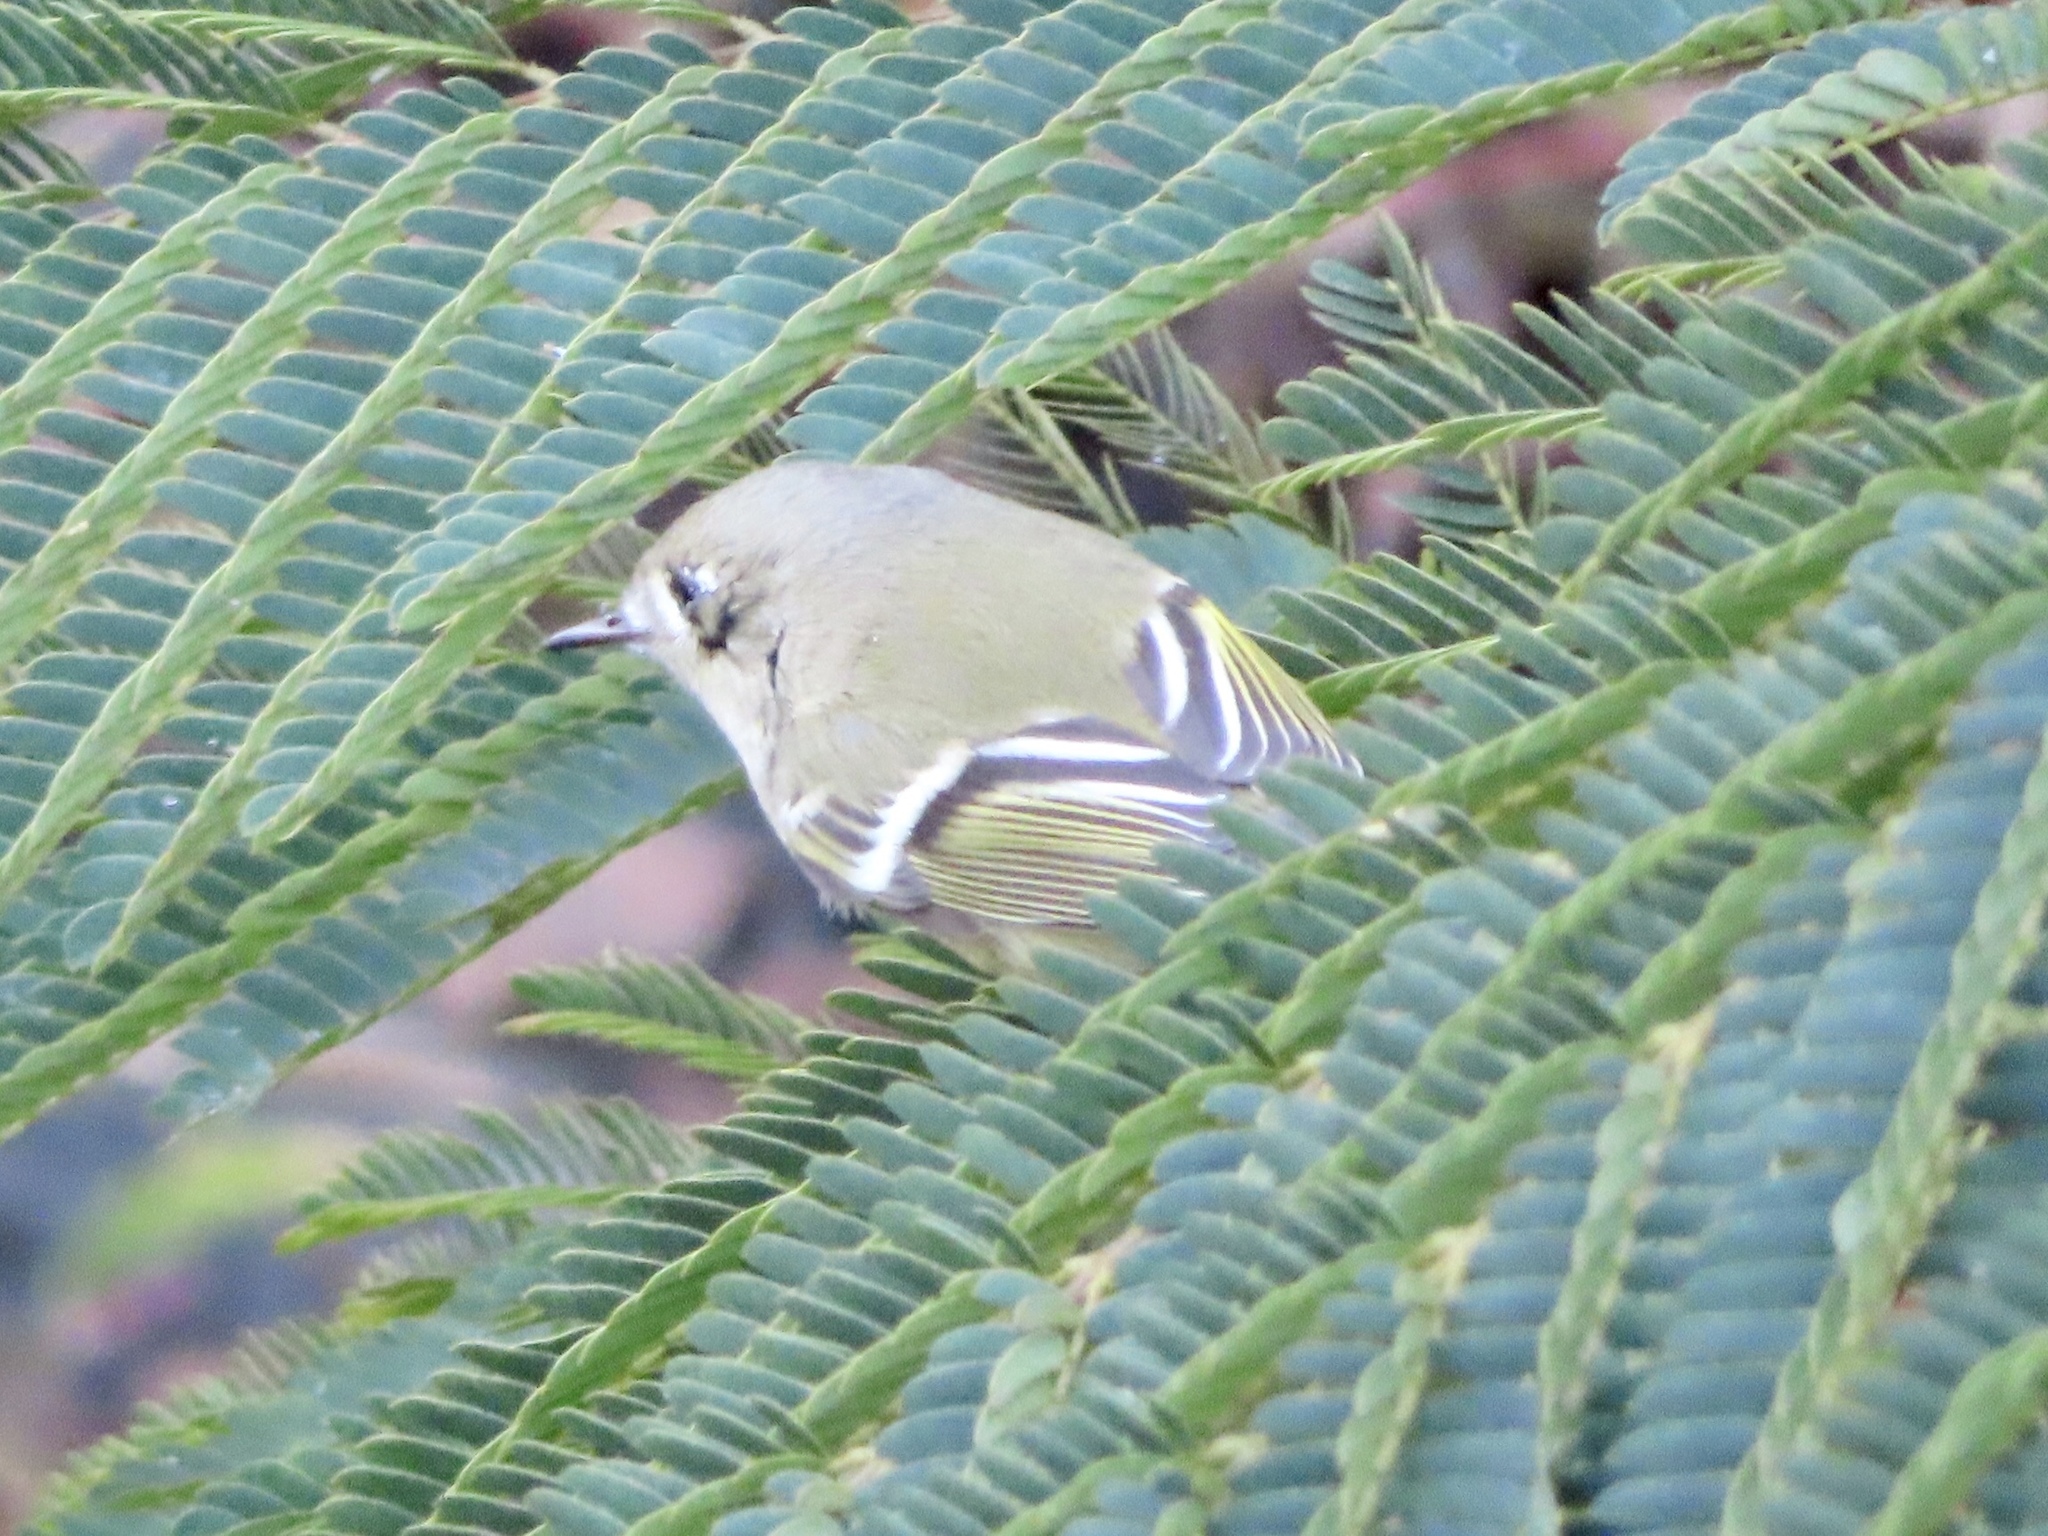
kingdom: Animalia
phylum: Chordata
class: Aves
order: Passeriformes
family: Regulidae
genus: Regulus
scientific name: Regulus calendula
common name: Ruby-crowned kinglet
